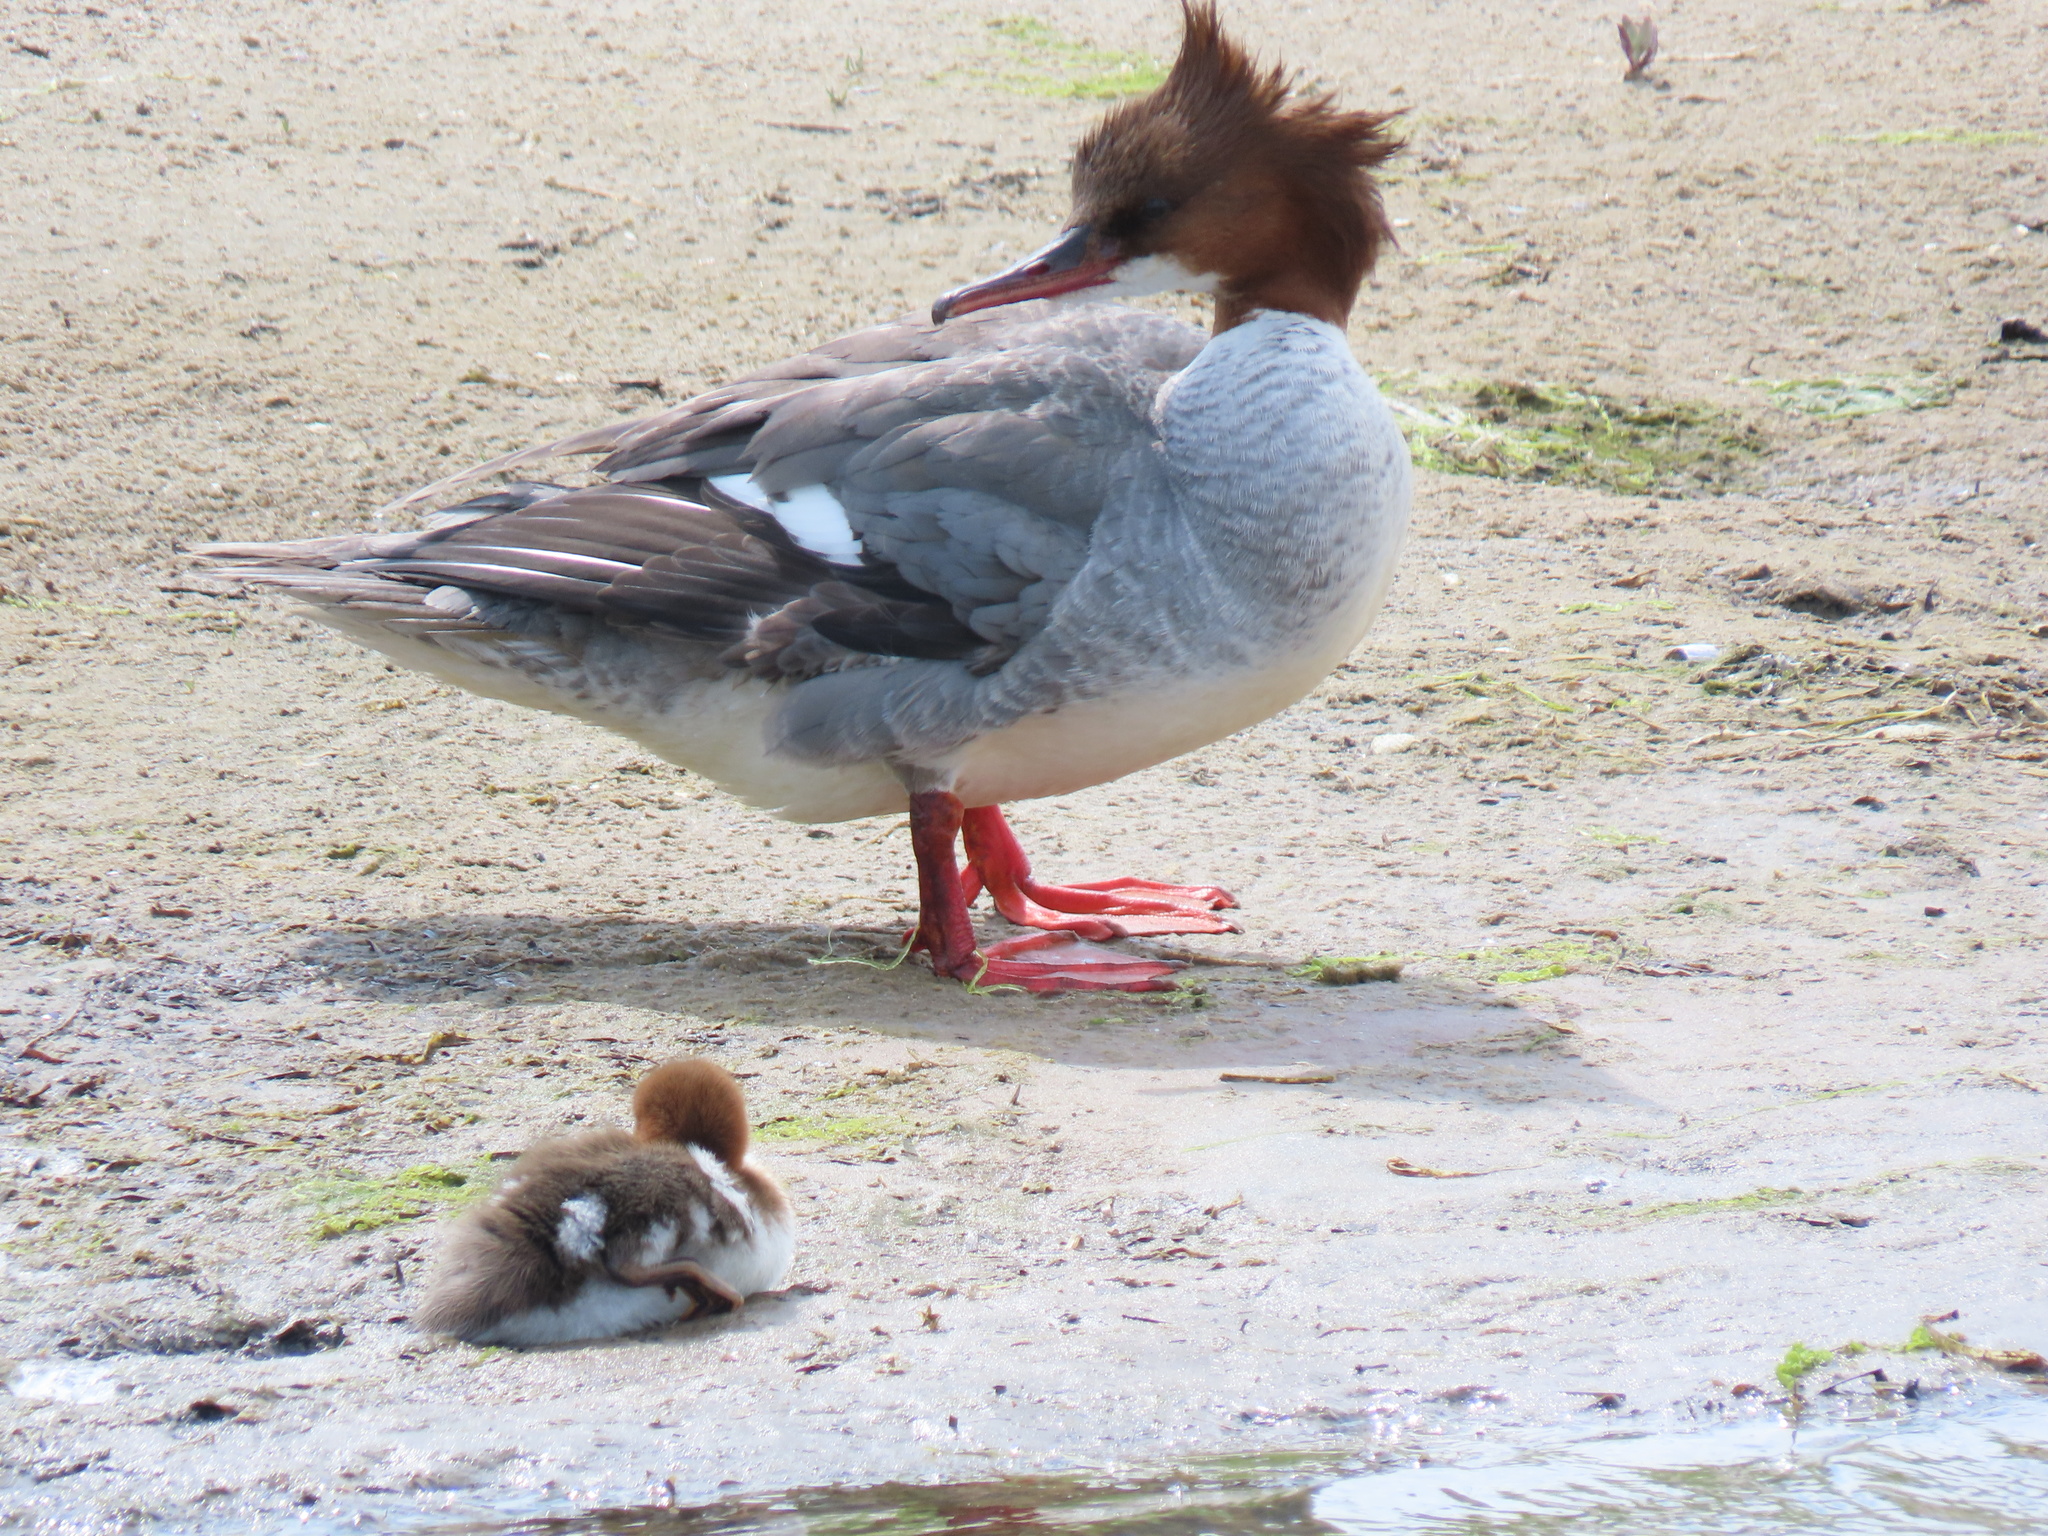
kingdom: Animalia
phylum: Chordata
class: Aves
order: Anseriformes
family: Anatidae
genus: Mergus
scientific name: Mergus merganser
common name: Common merganser
